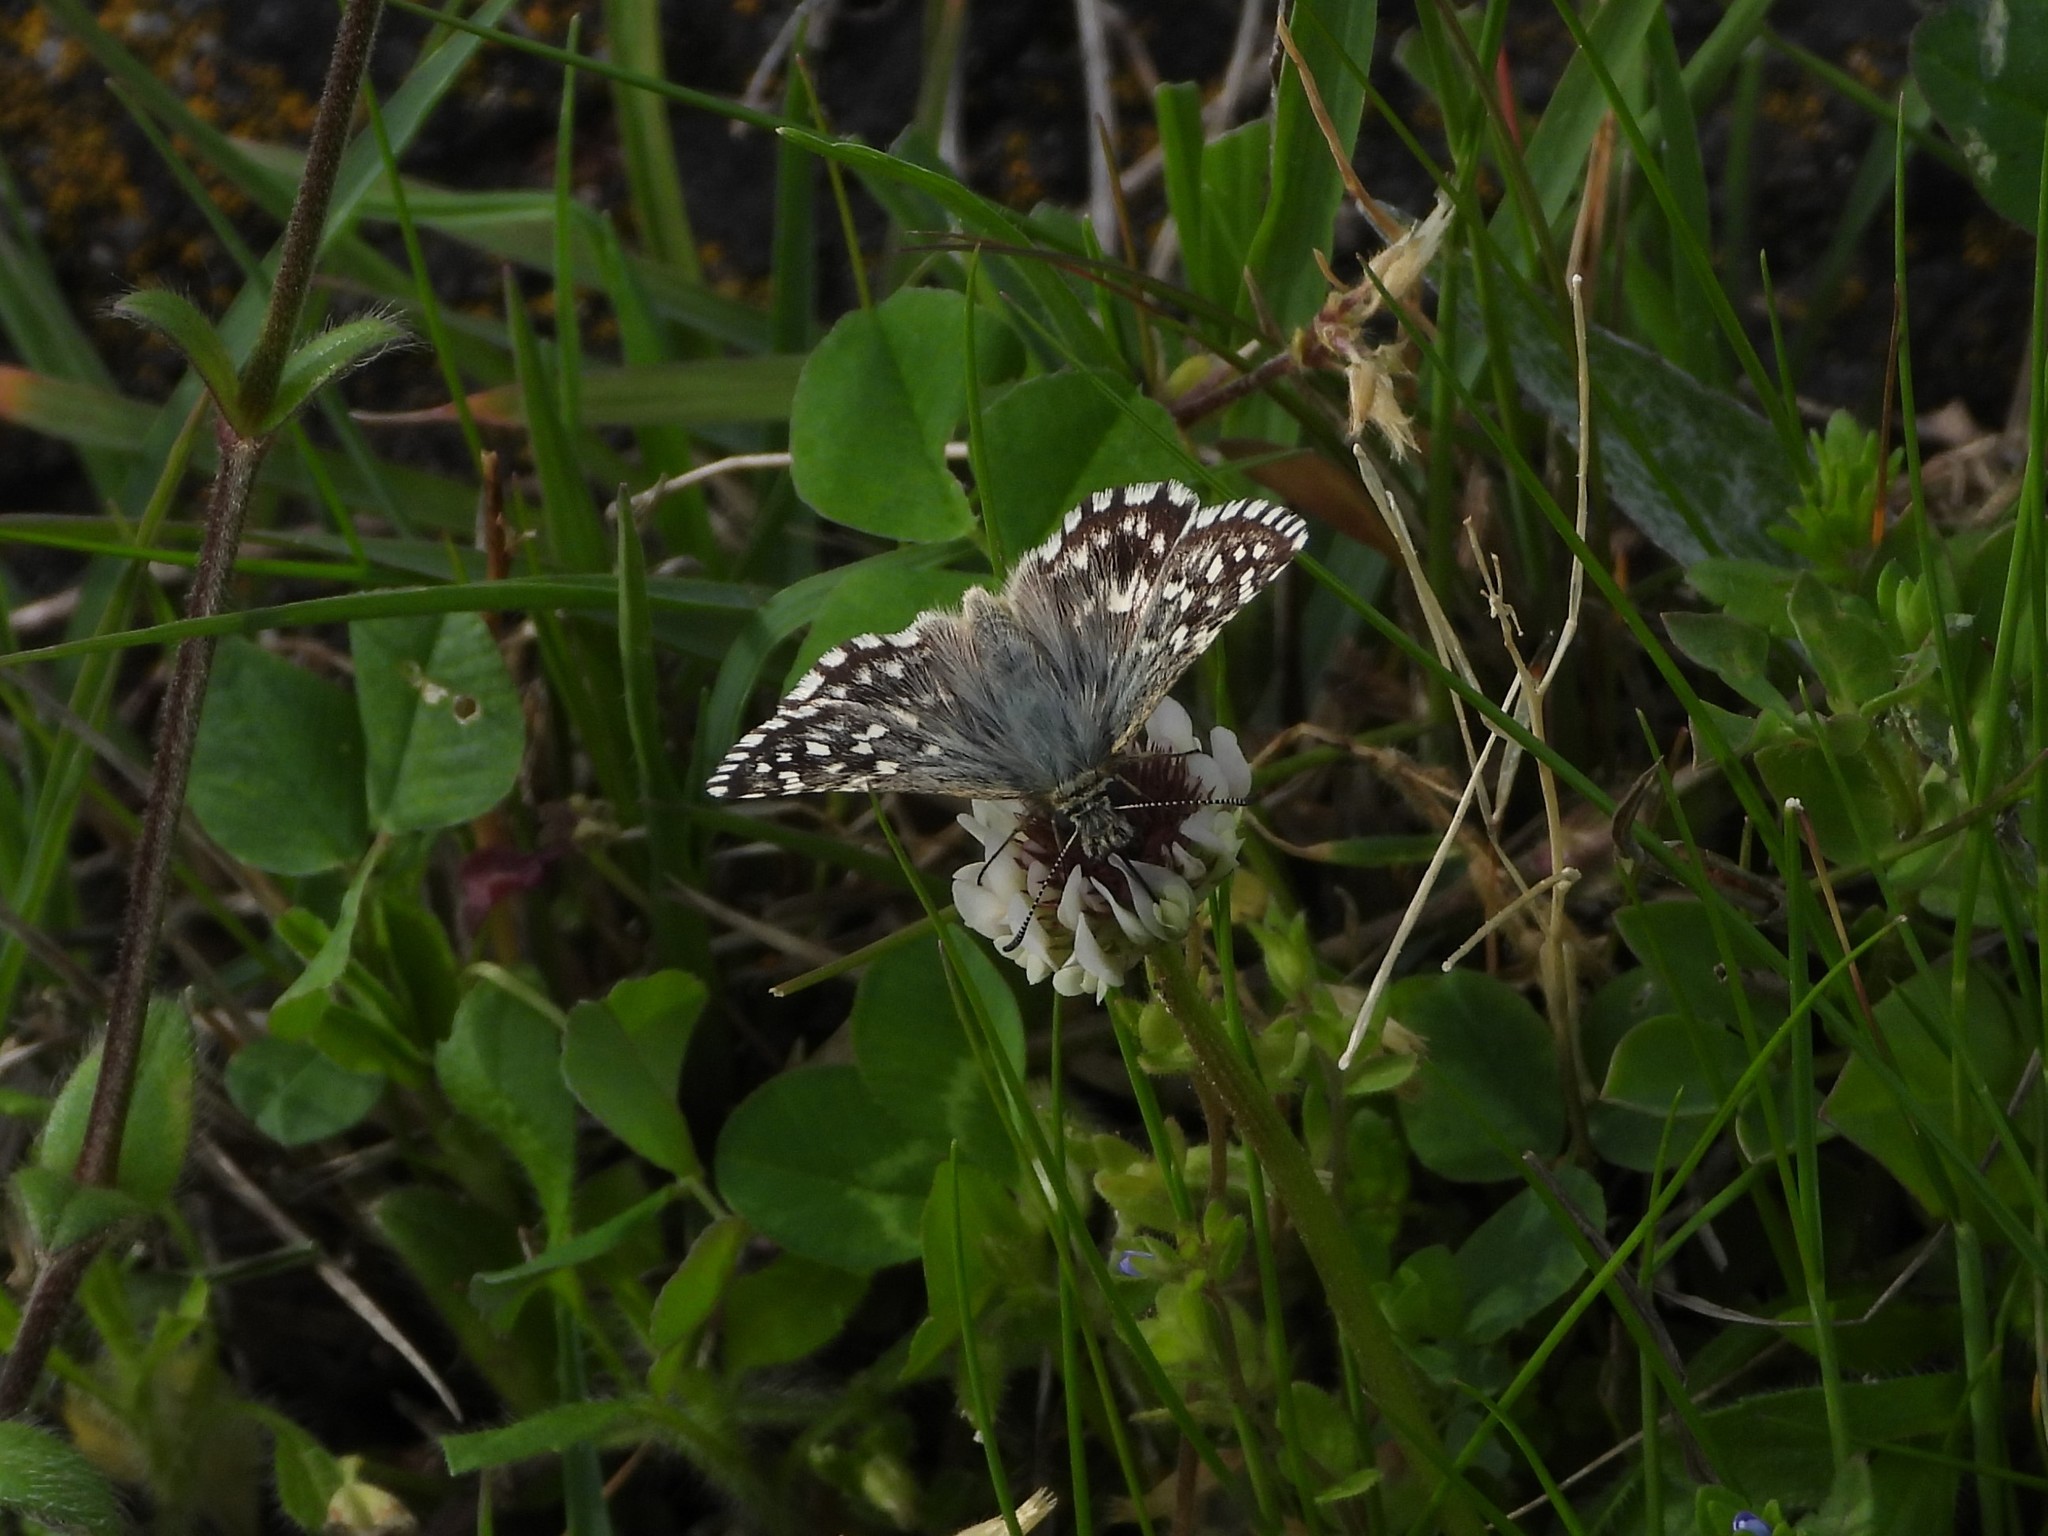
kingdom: Animalia
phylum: Arthropoda
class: Insecta
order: Lepidoptera
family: Hesperiidae
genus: Pyrgus
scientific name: Pyrgus malvoides
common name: Southern grizzled skipper
